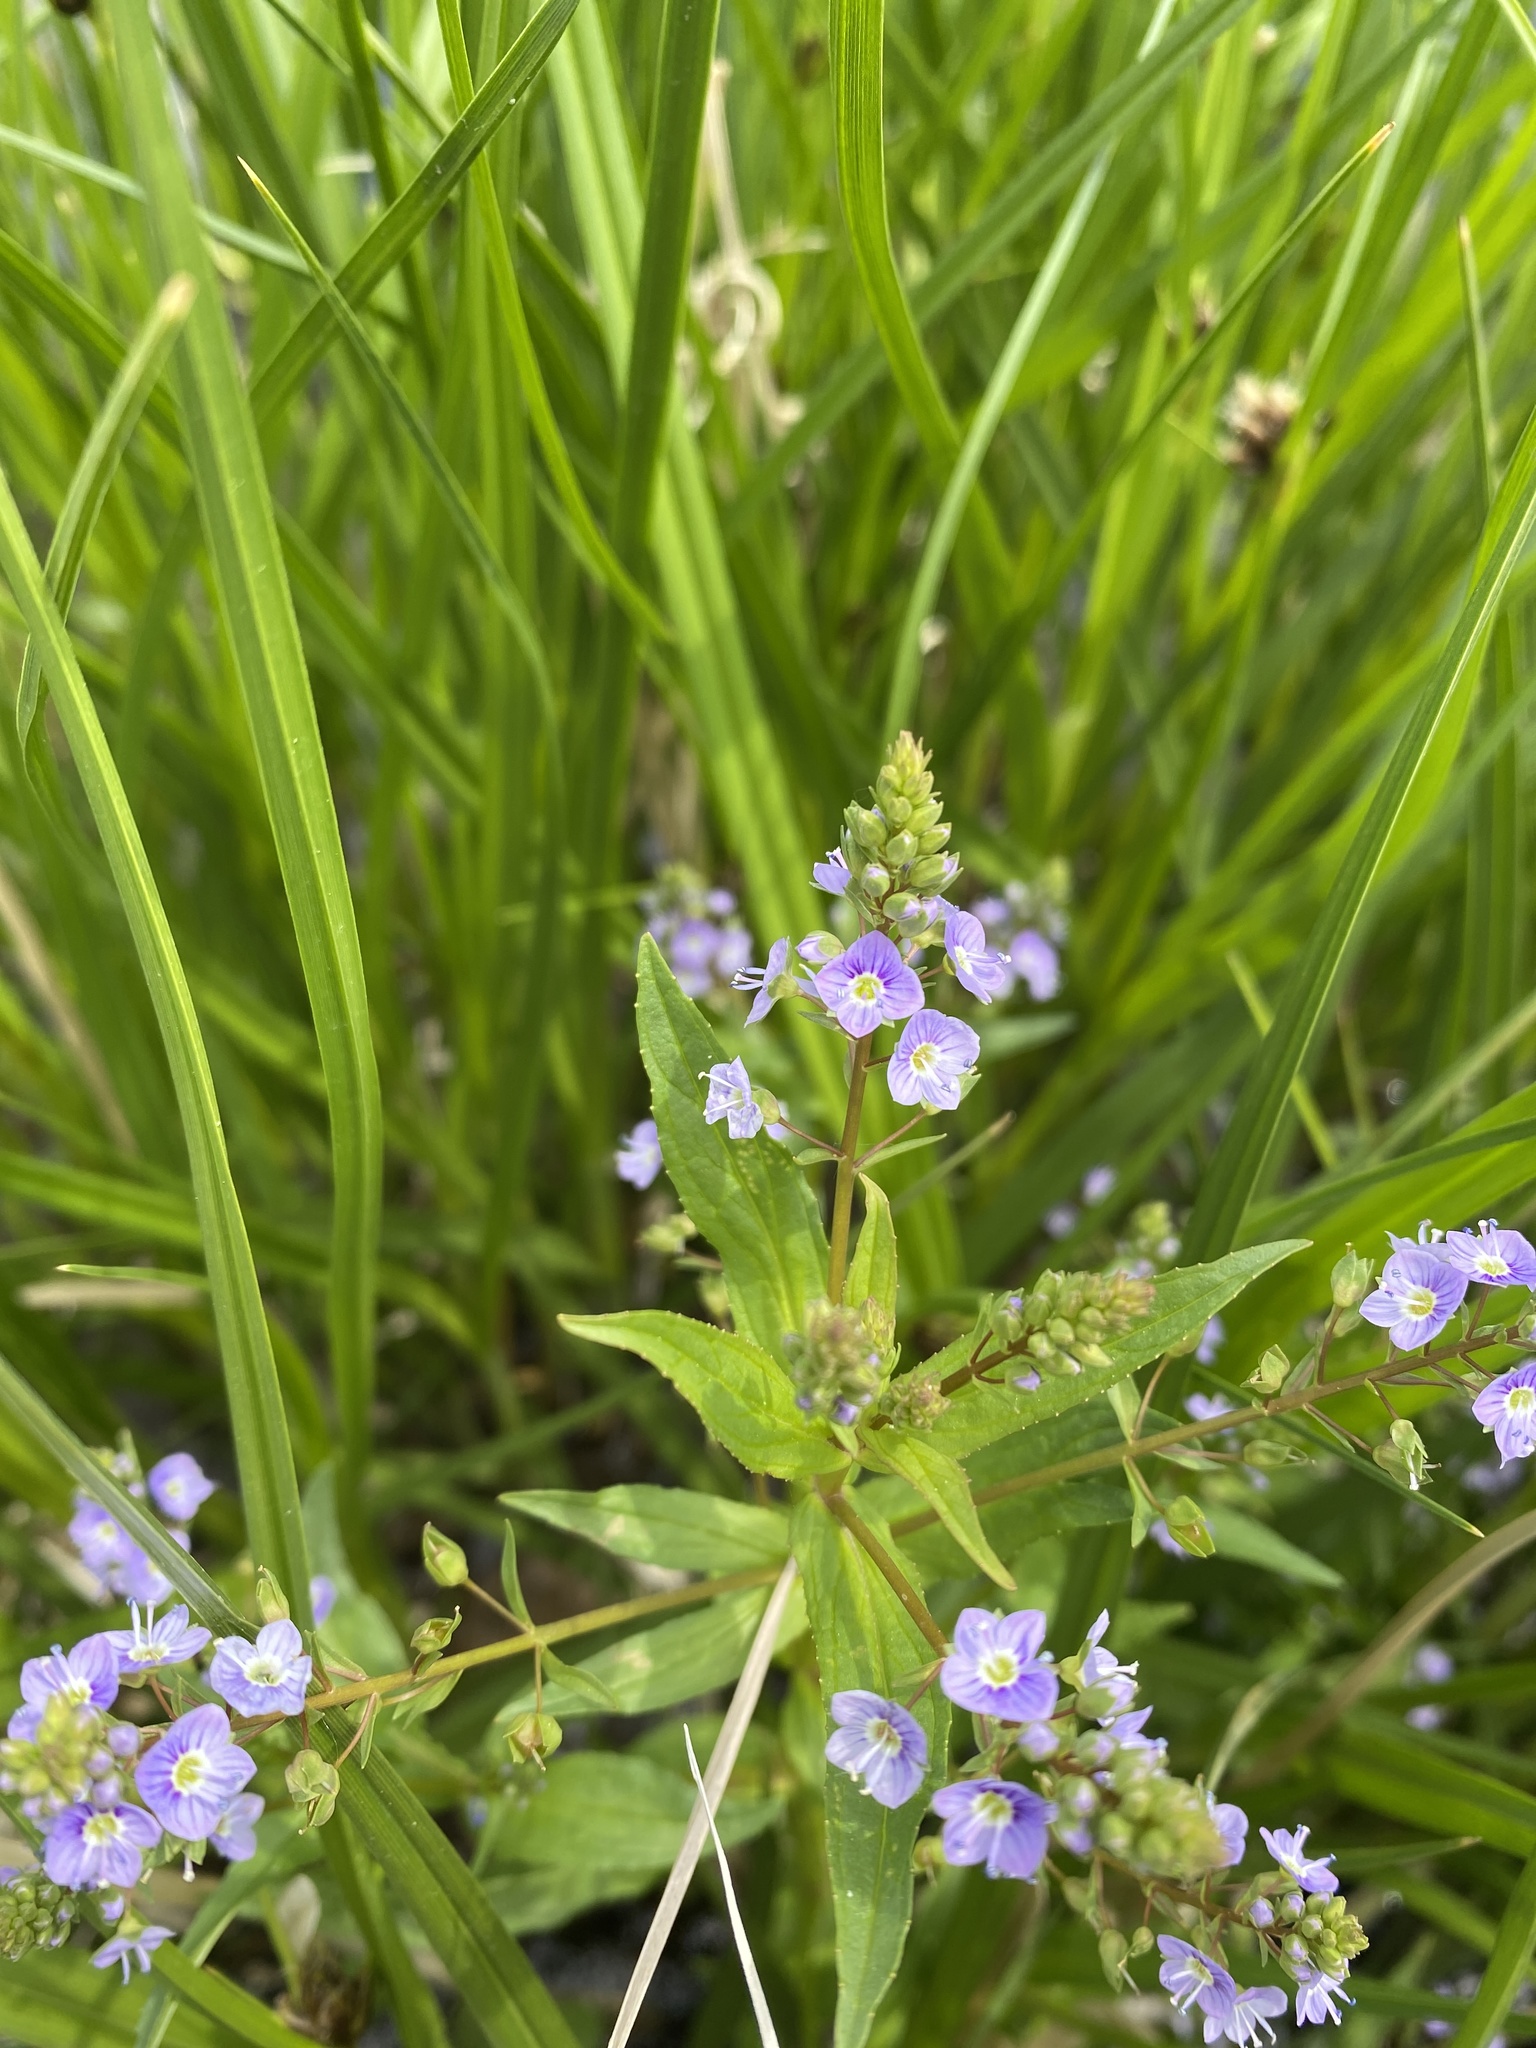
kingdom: Plantae
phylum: Tracheophyta
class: Magnoliopsida
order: Lamiales
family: Plantaginaceae
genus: Veronica
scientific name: Veronica anagallis-aquatica
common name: Water speedwell
